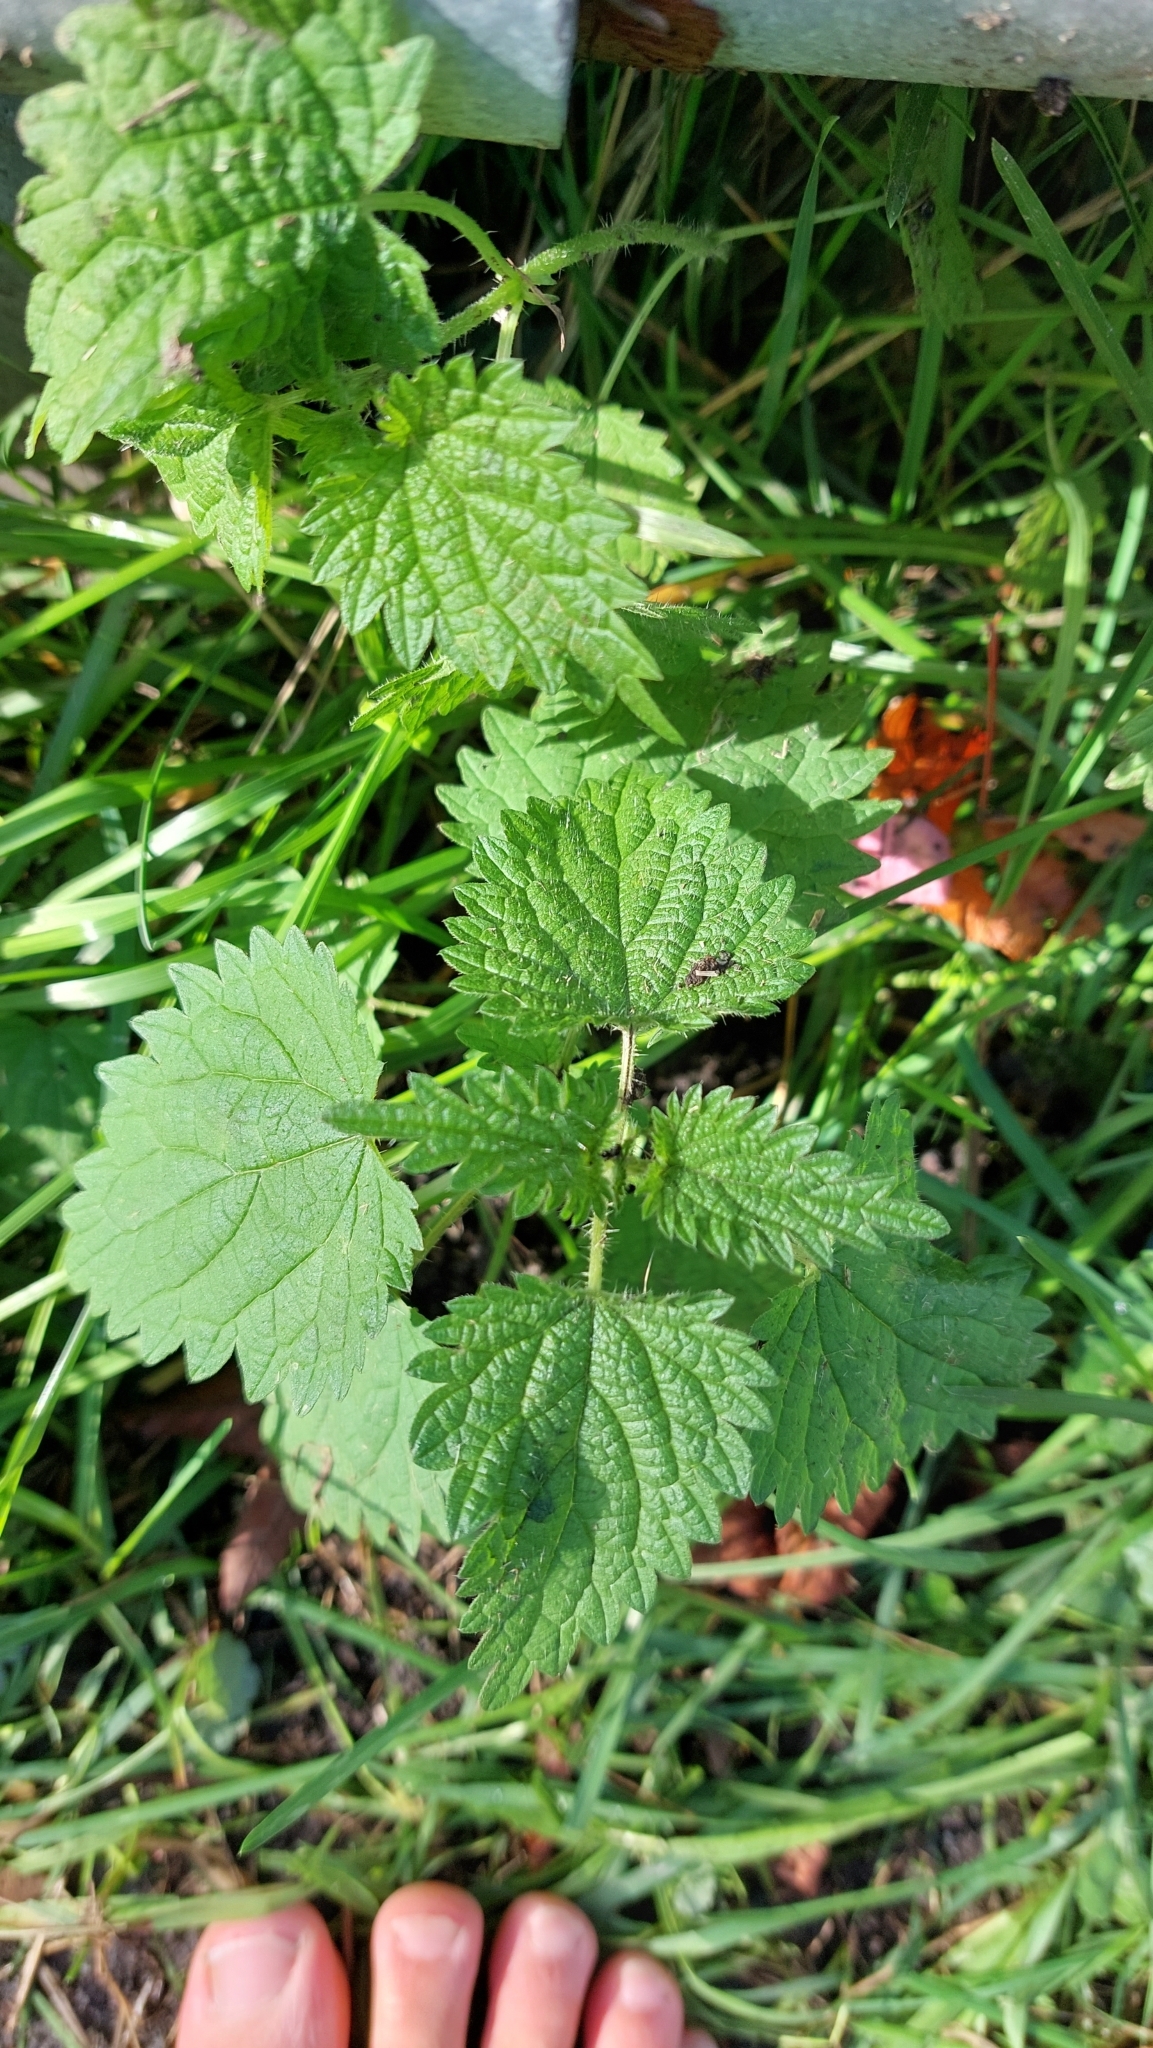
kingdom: Plantae
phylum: Tracheophyta
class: Magnoliopsida
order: Rosales
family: Urticaceae
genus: Urtica
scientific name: Urtica dioica
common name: Common nettle
